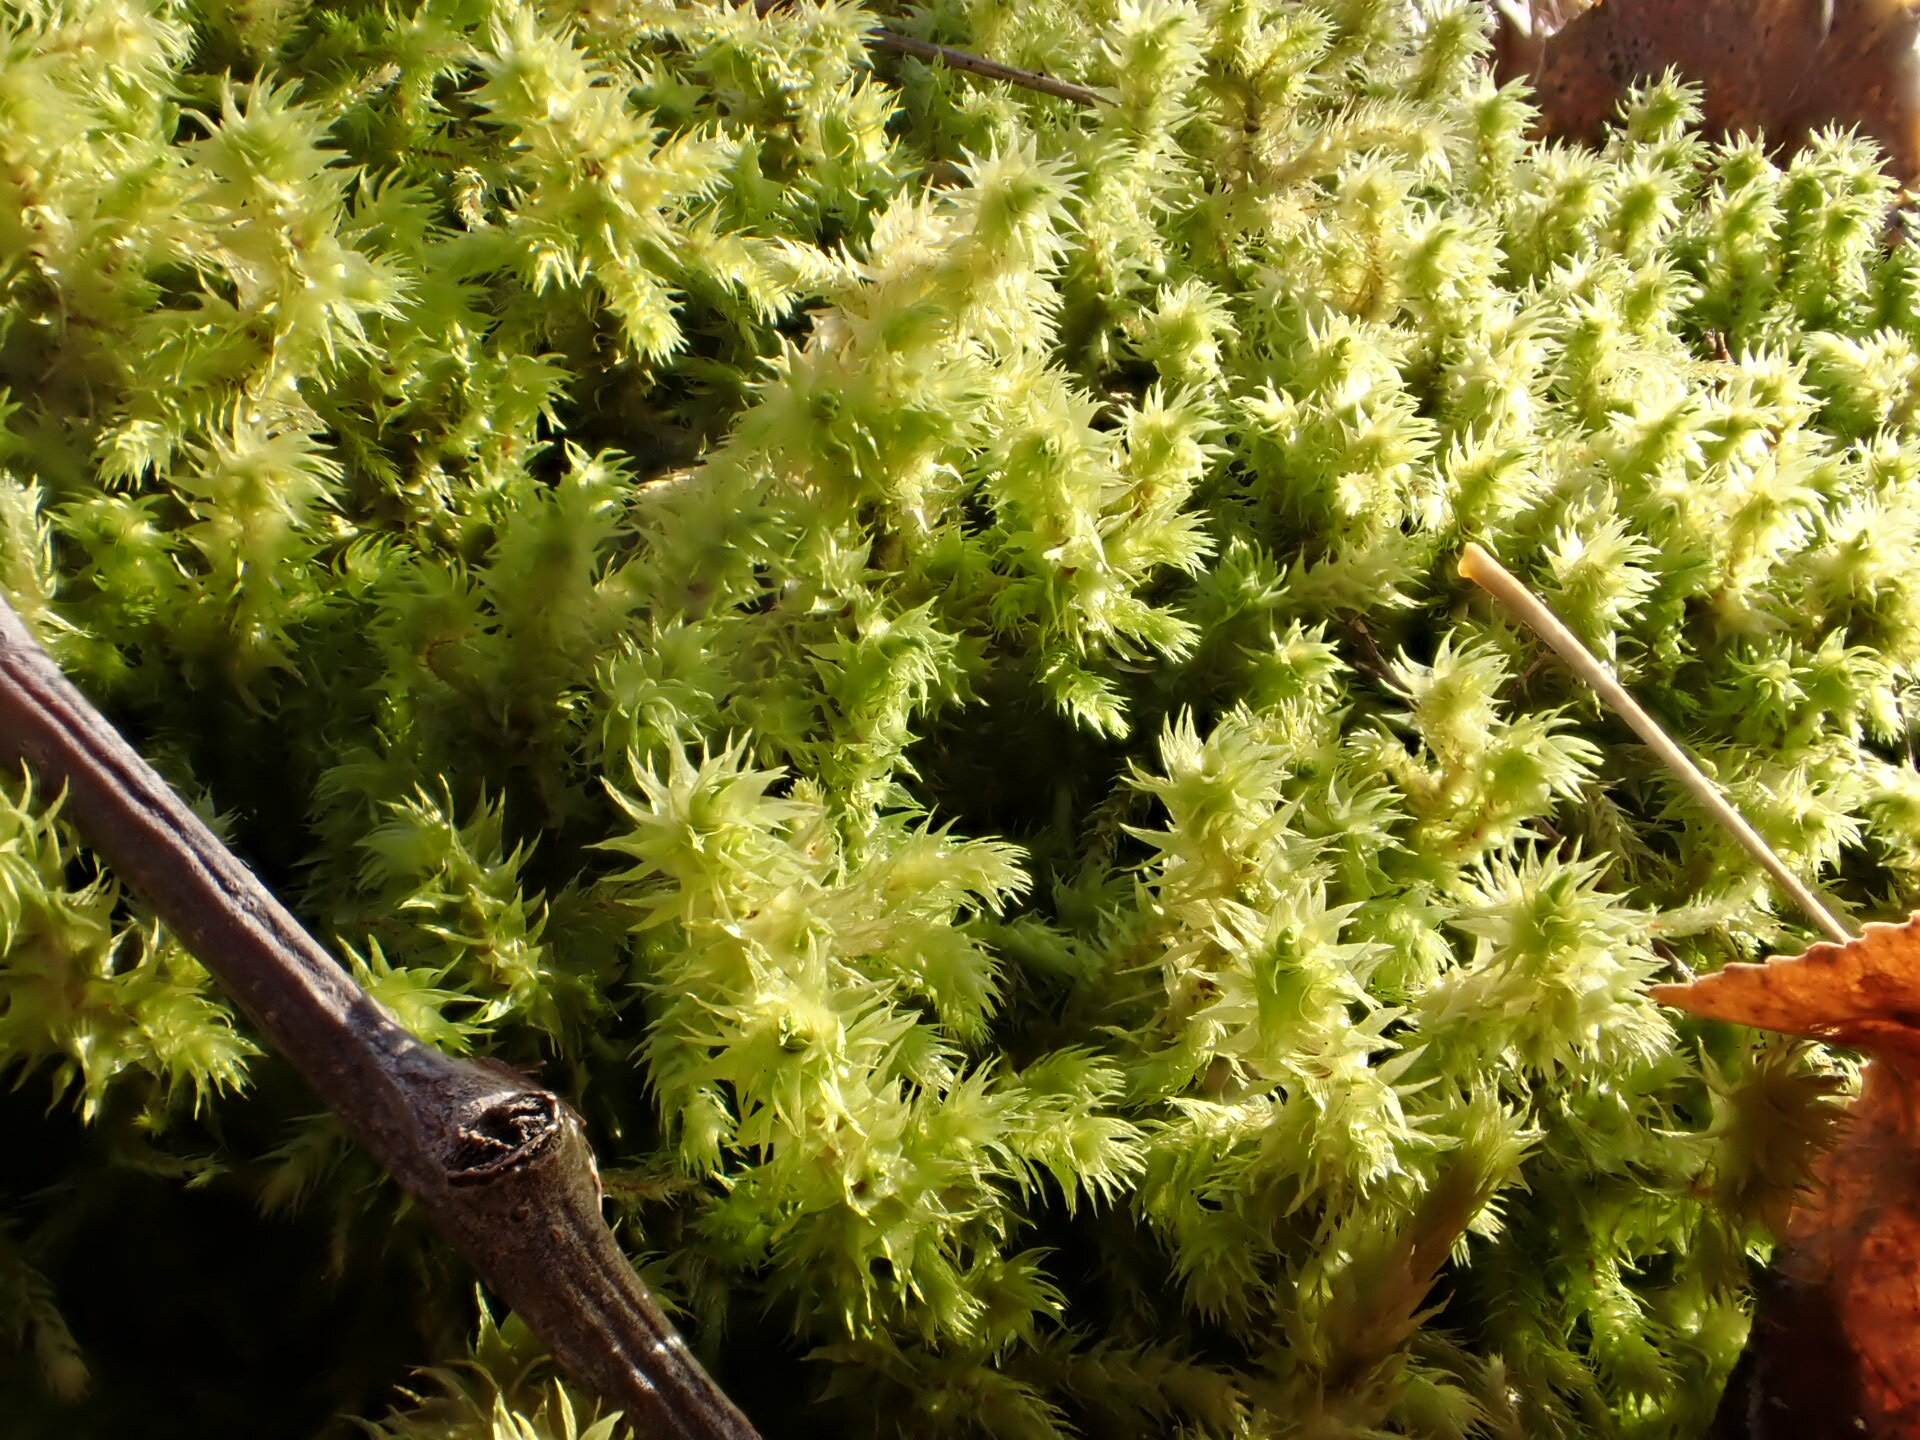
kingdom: Plantae
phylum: Bryophyta
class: Bryopsida
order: Hypnales
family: Hylocomiaceae
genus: Hylocomiadelphus
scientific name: Hylocomiadelphus triquetrus
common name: Rough goose neck moss
